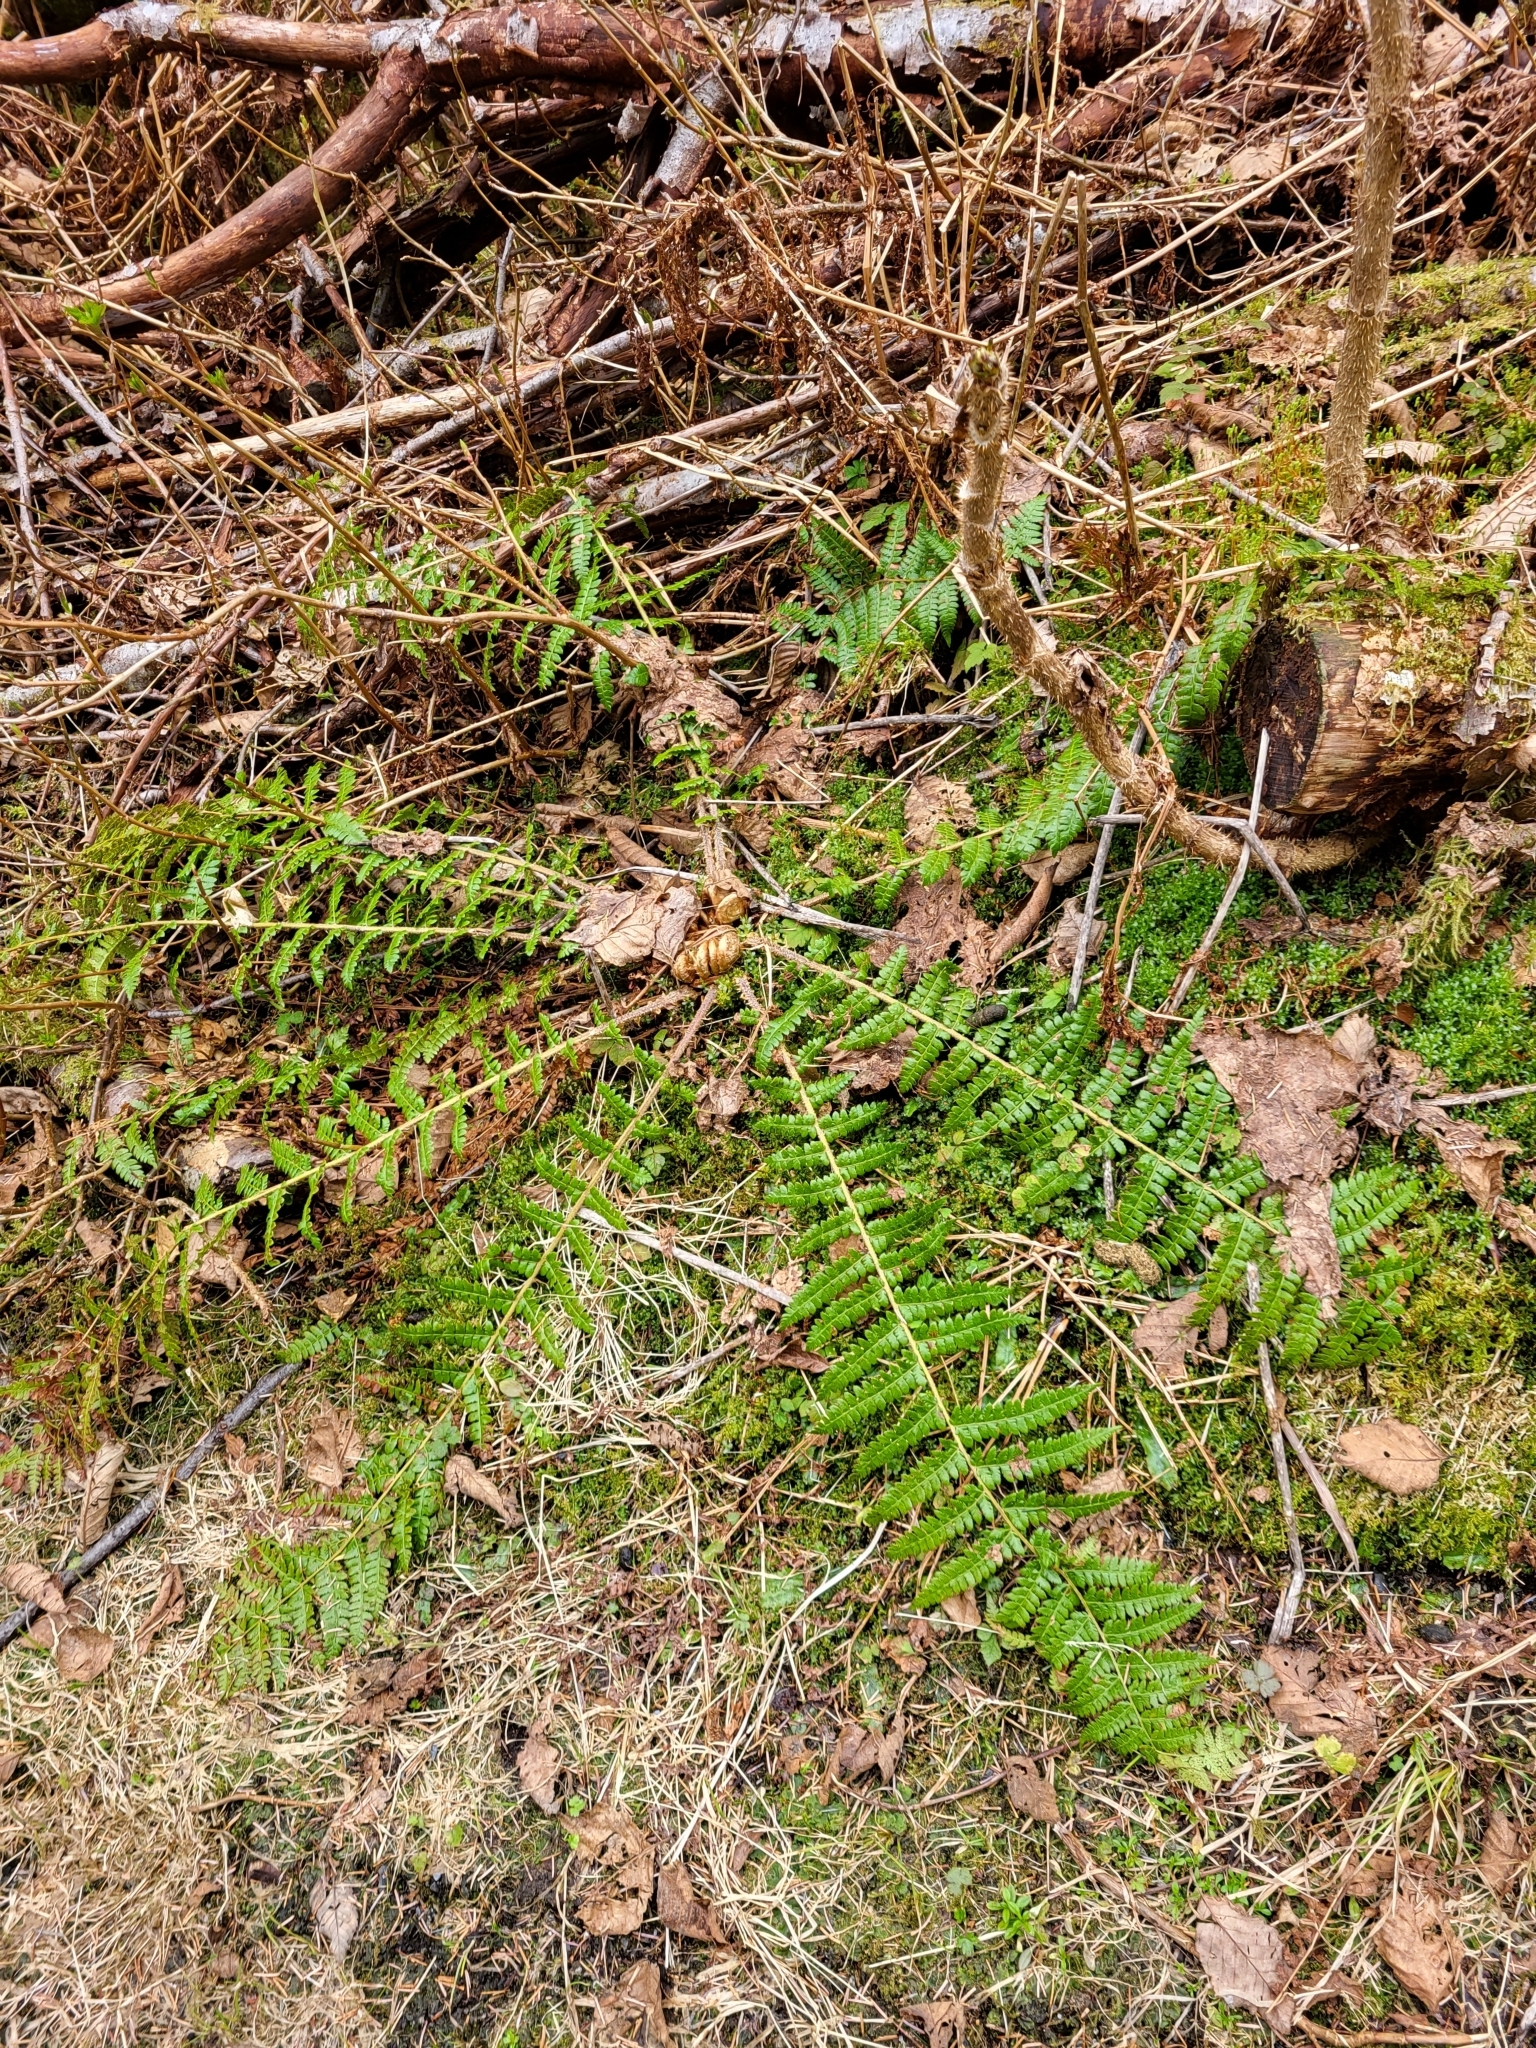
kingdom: Plantae
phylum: Tracheophyta
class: Polypodiopsida
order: Polypodiales
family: Dryopteridaceae
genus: Polystichum
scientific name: Polystichum braunii
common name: Braun's holly fern
